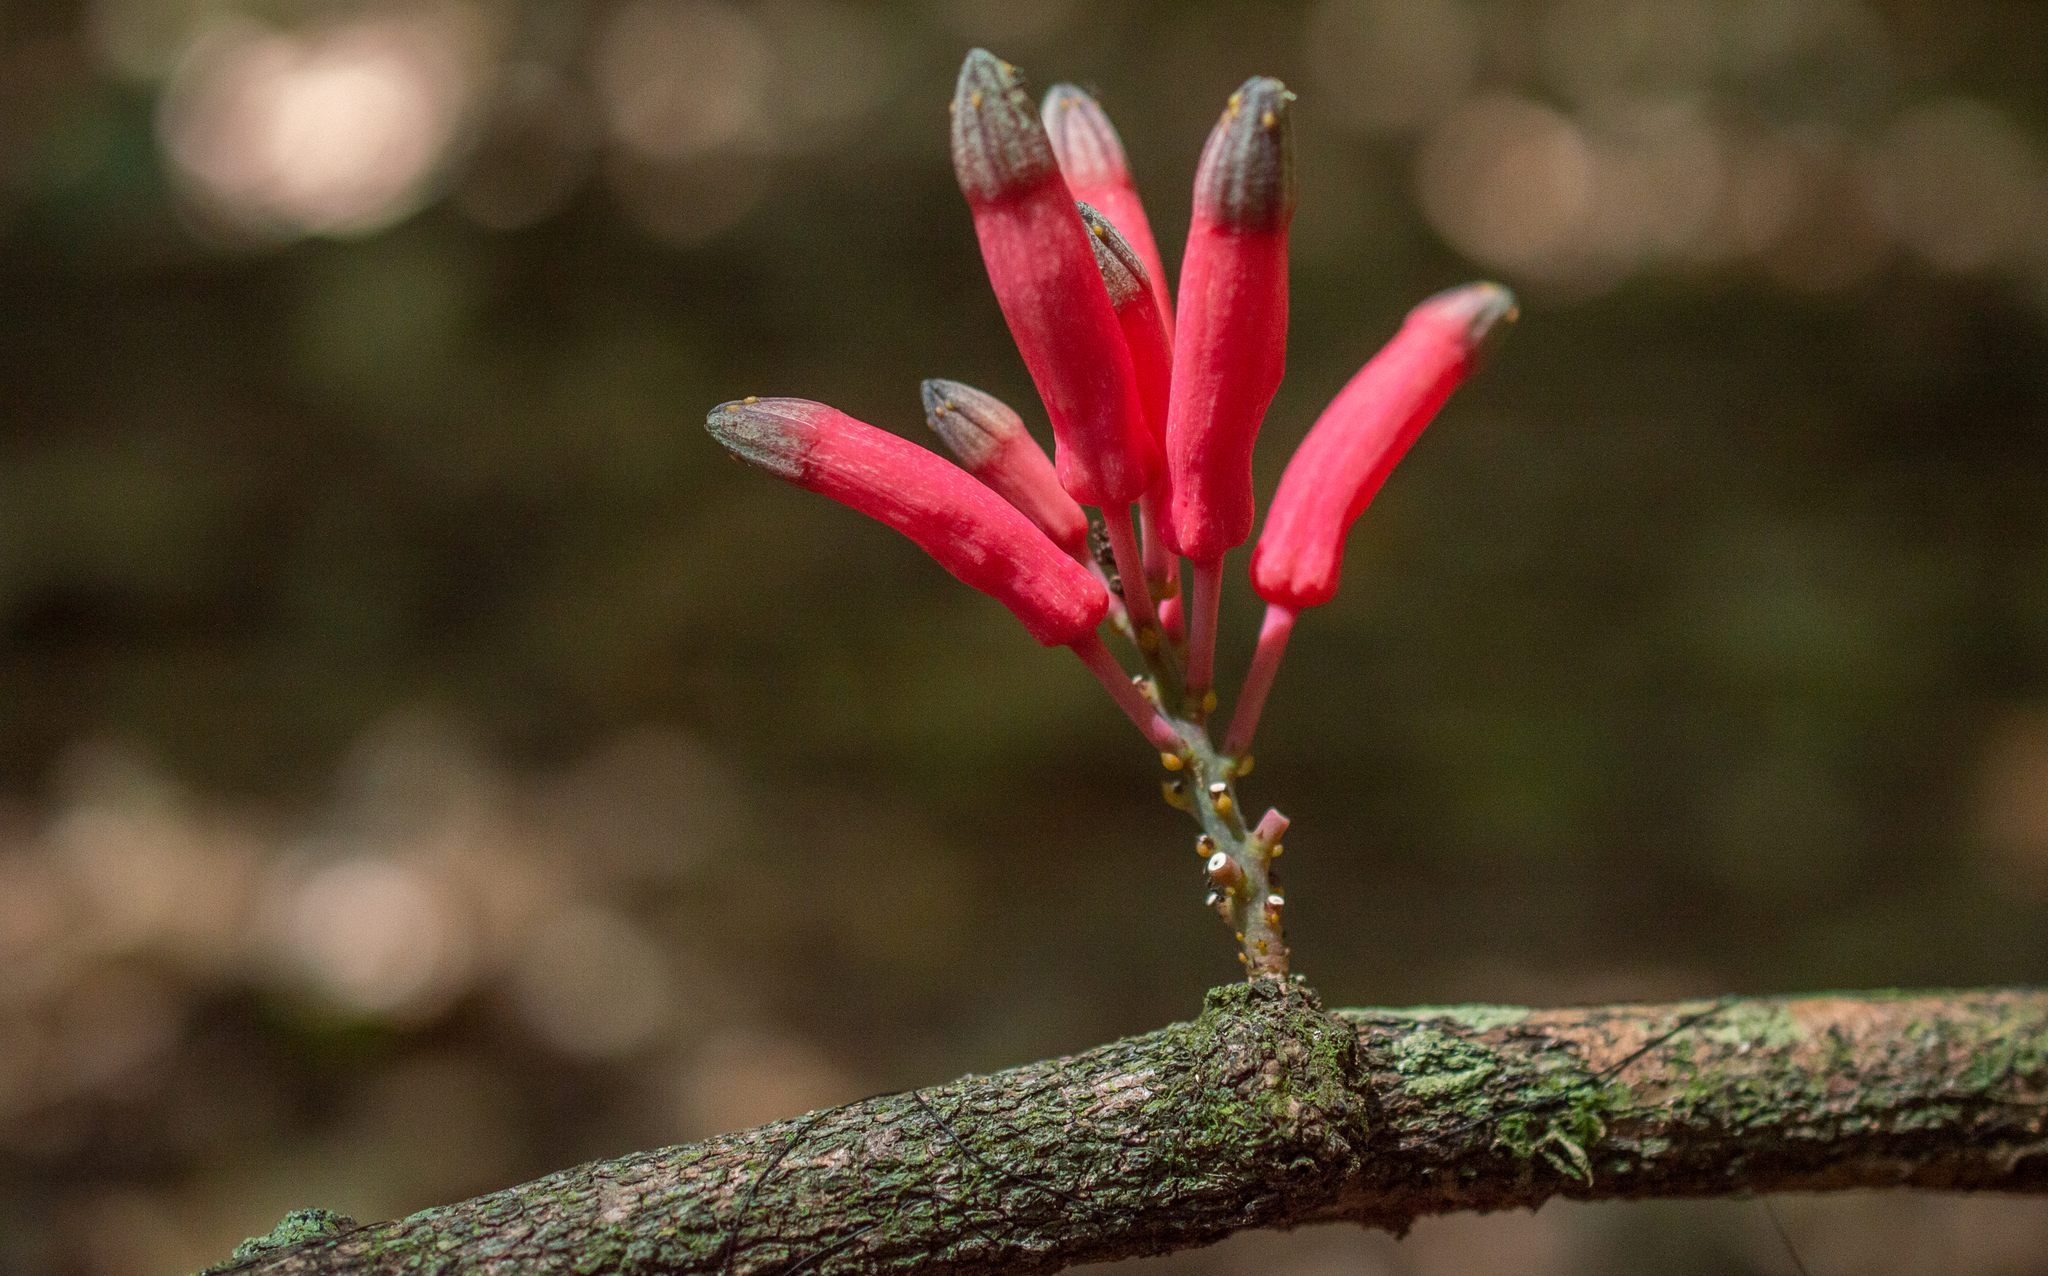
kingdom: Plantae
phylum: Tracheophyta
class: Magnoliopsida
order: Malpighiales
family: Passifloraceae
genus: Passiflora
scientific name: Passiflora longiracemosa
